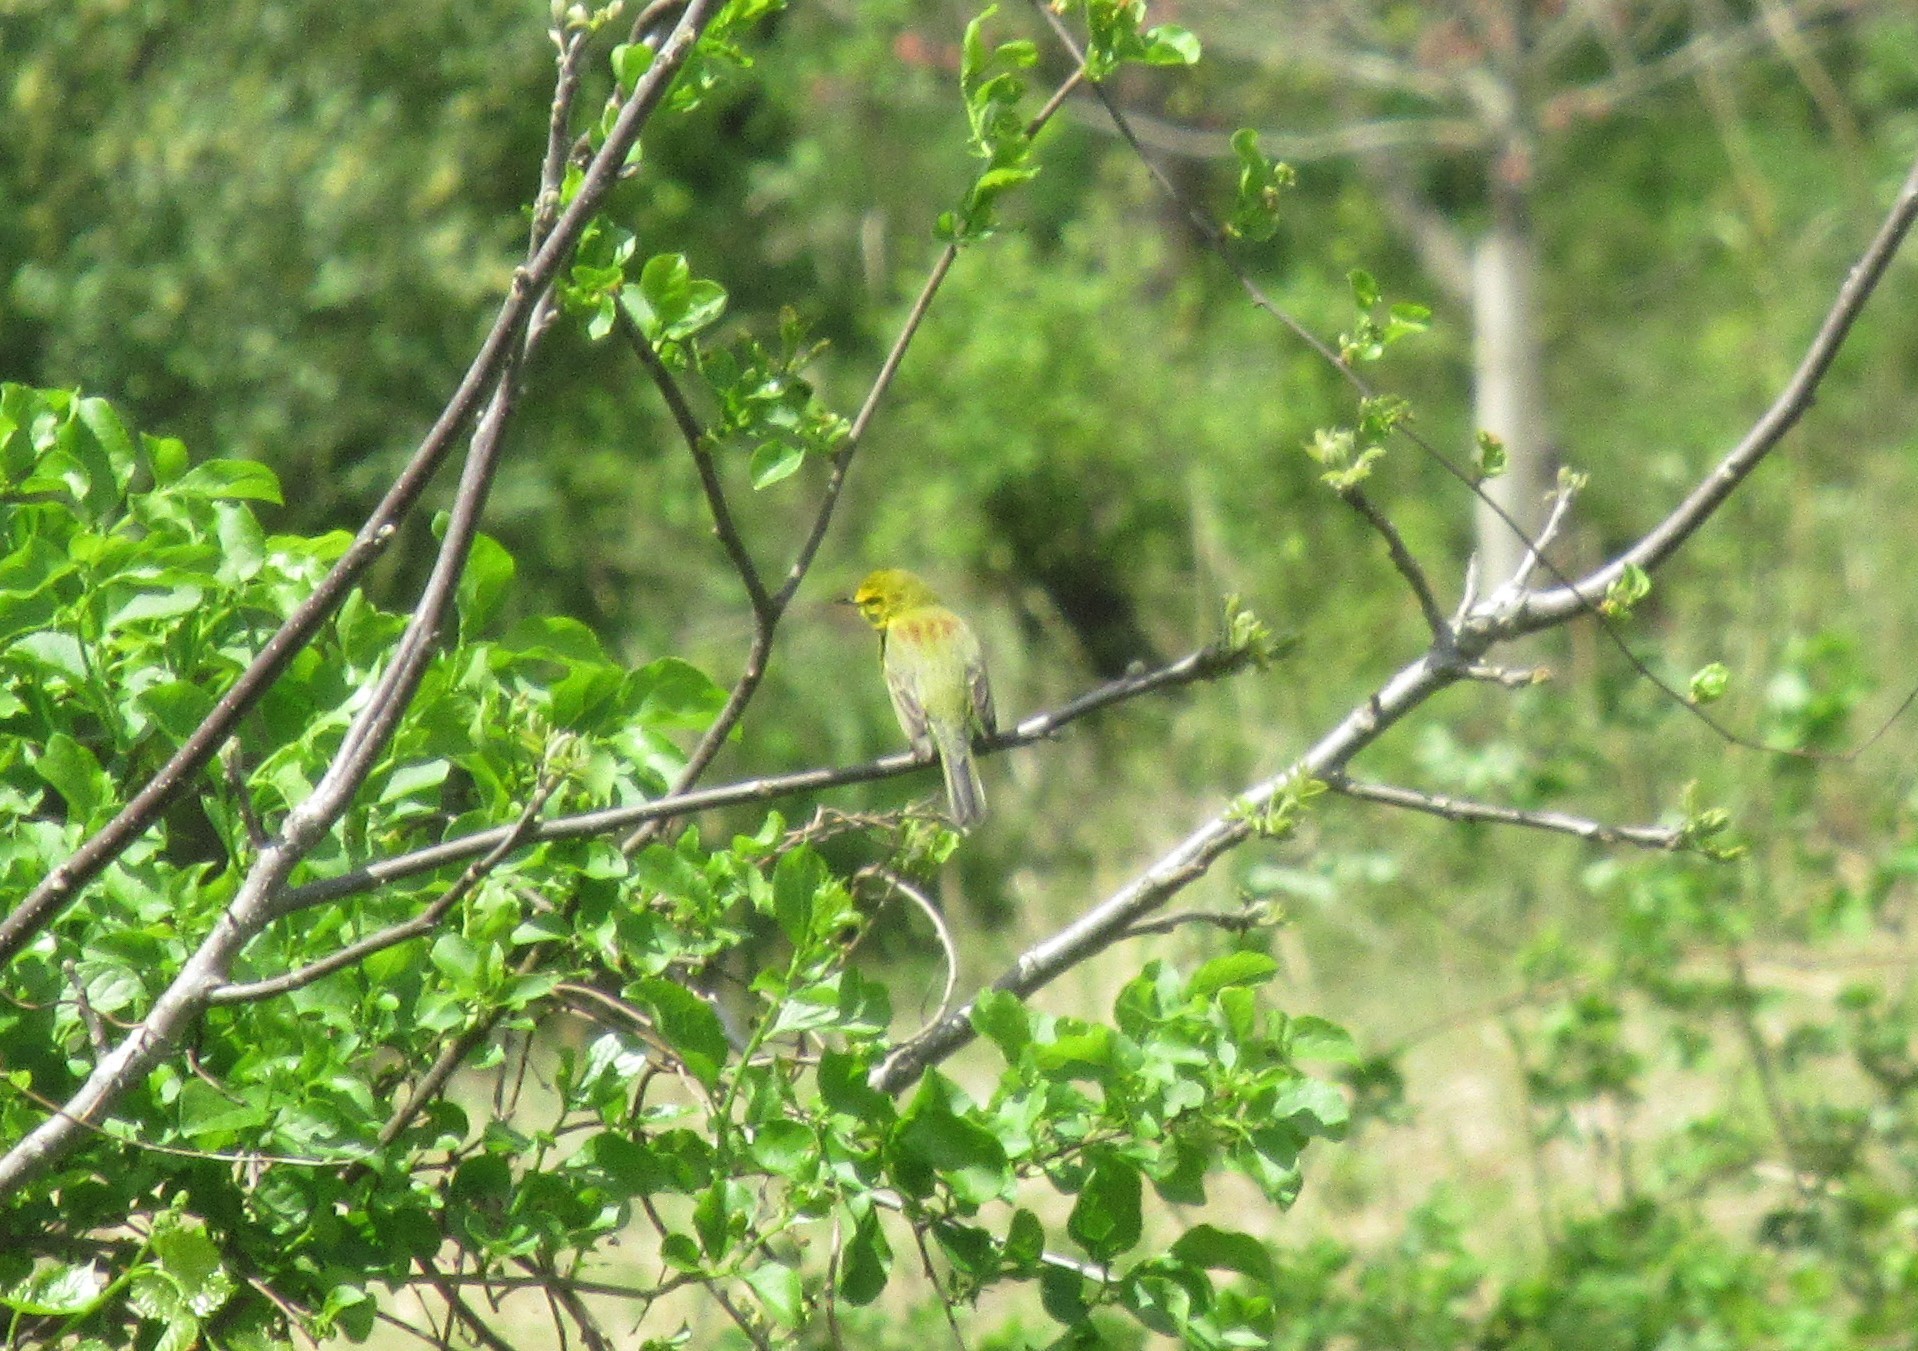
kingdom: Animalia
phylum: Chordata
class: Aves
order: Passeriformes
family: Parulidae
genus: Setophaga
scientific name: Setophaga discolor
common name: Prairie warbler
